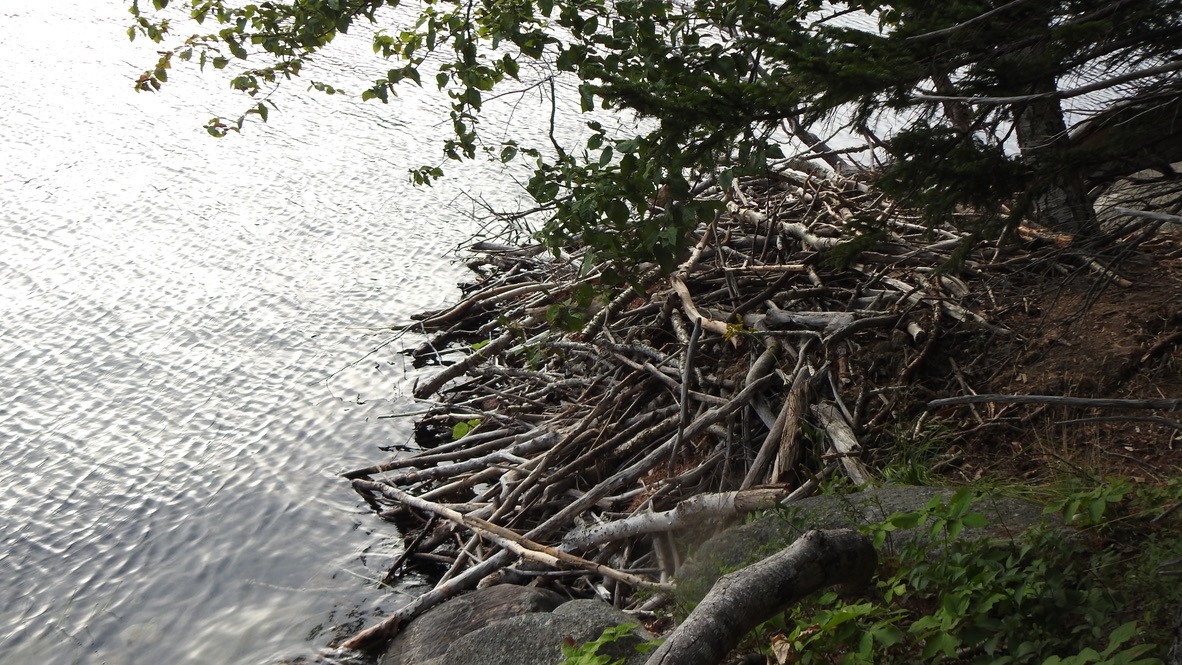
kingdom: Animalia
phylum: Chordata
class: Mammalia
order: Rodentia
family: Castoridae
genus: Castor
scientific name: Castor canadensis
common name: American beaver
